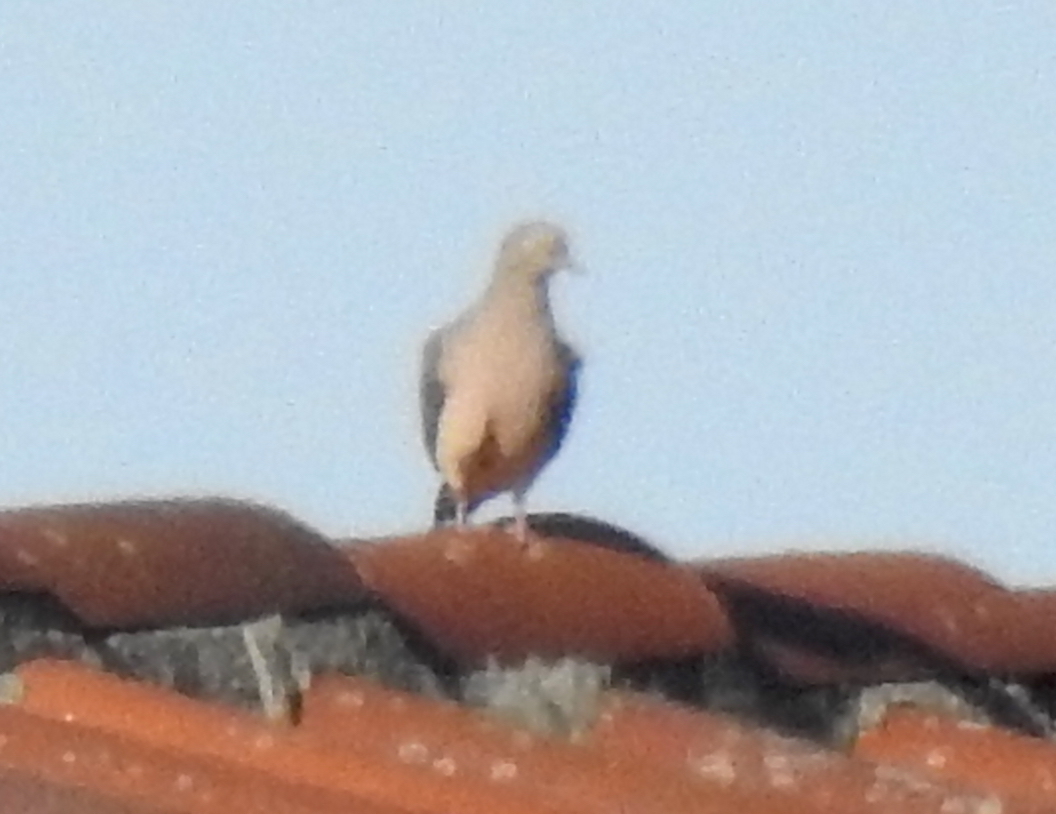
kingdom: Animalia
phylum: Chordata
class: Aves
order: Columbiformes
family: Columbidae
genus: Zenaida
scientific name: Zenaida macroura
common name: Mourning dove
